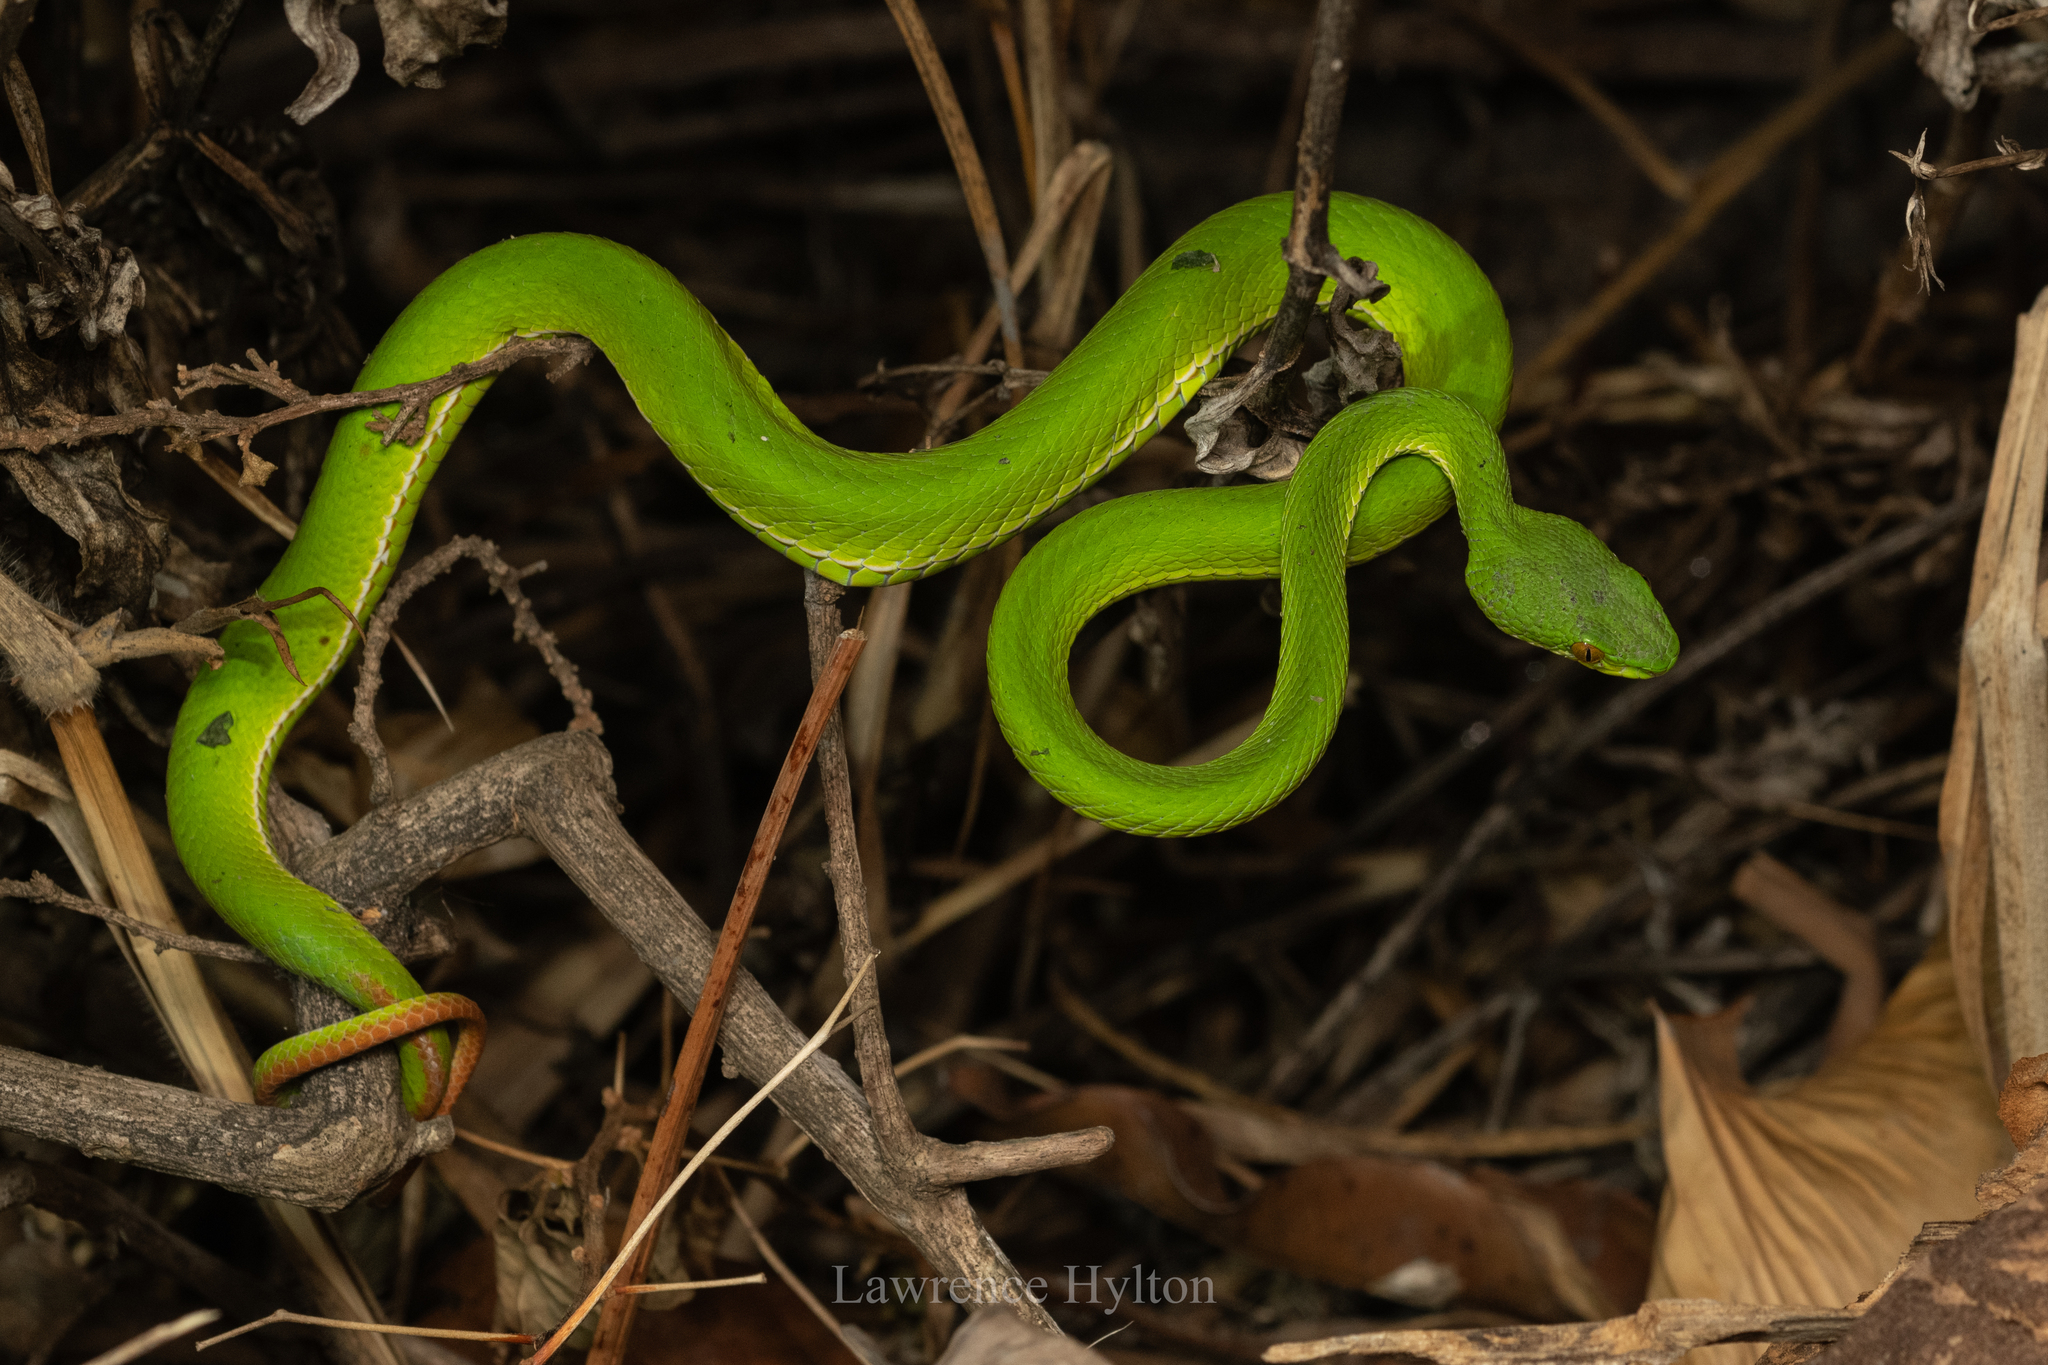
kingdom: Animalia
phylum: Chordata
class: Squamata
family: Viperidae
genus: Trimeresurus
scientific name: Trimeresurus albolabris
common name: White-lipped pitviper
